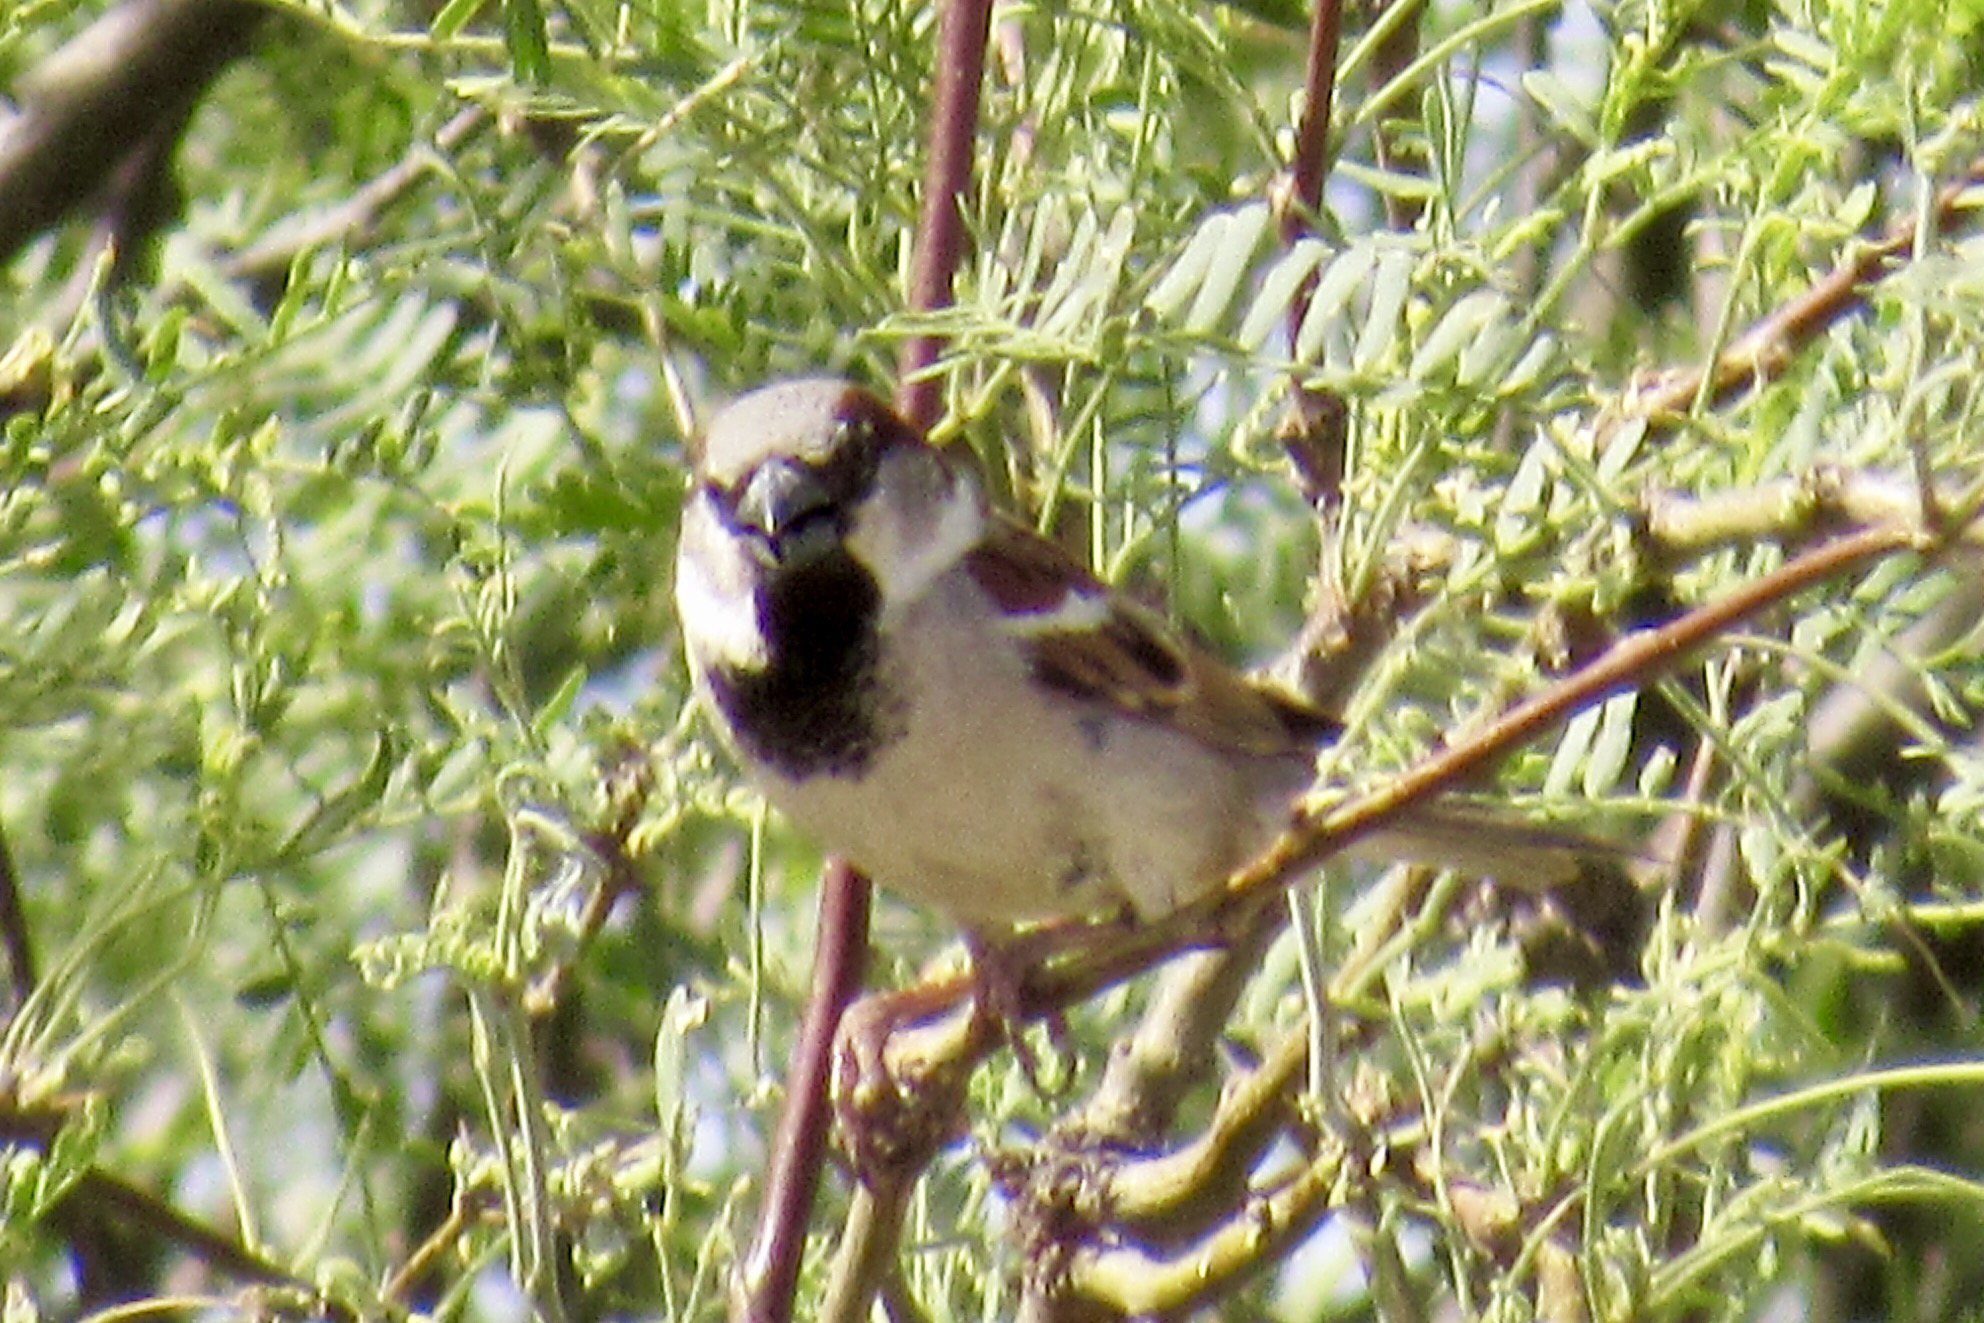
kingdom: Animalia
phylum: Chordata
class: Aves
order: Passeriformes
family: Passeridae
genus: Passer
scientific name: Passer domesticus
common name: House sparrow
